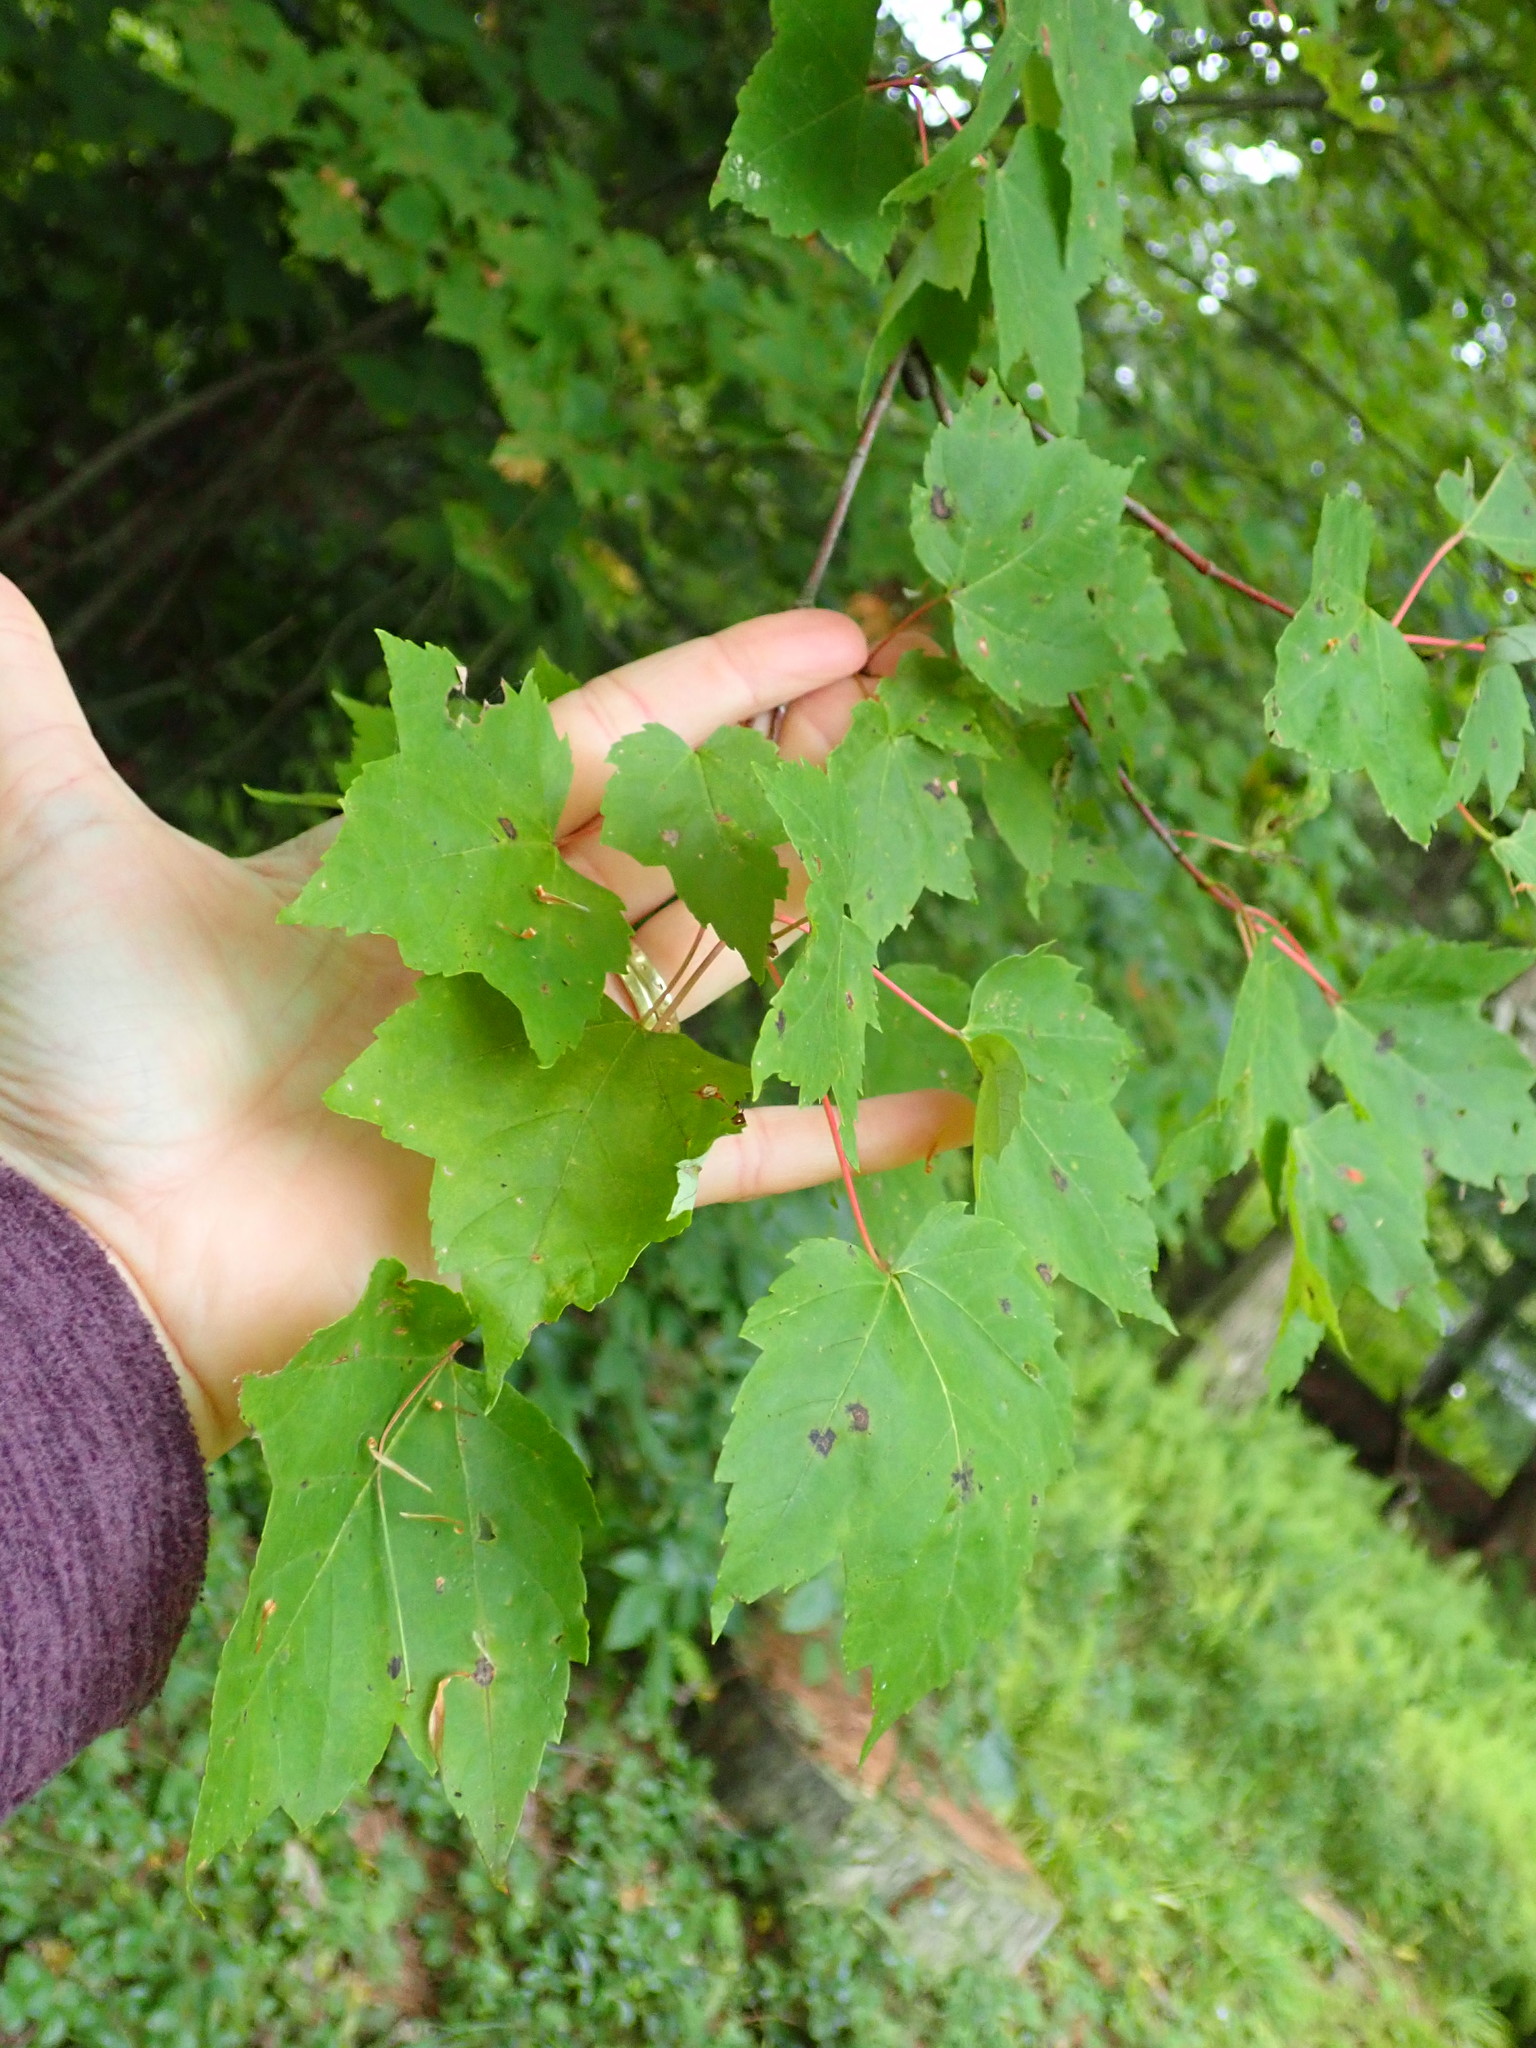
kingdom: Plantae
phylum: Tracheophyta
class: Magnoliopsida
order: Sapindales
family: Sapindaceae
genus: Acer
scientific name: Acer rubrum
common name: Red maple
